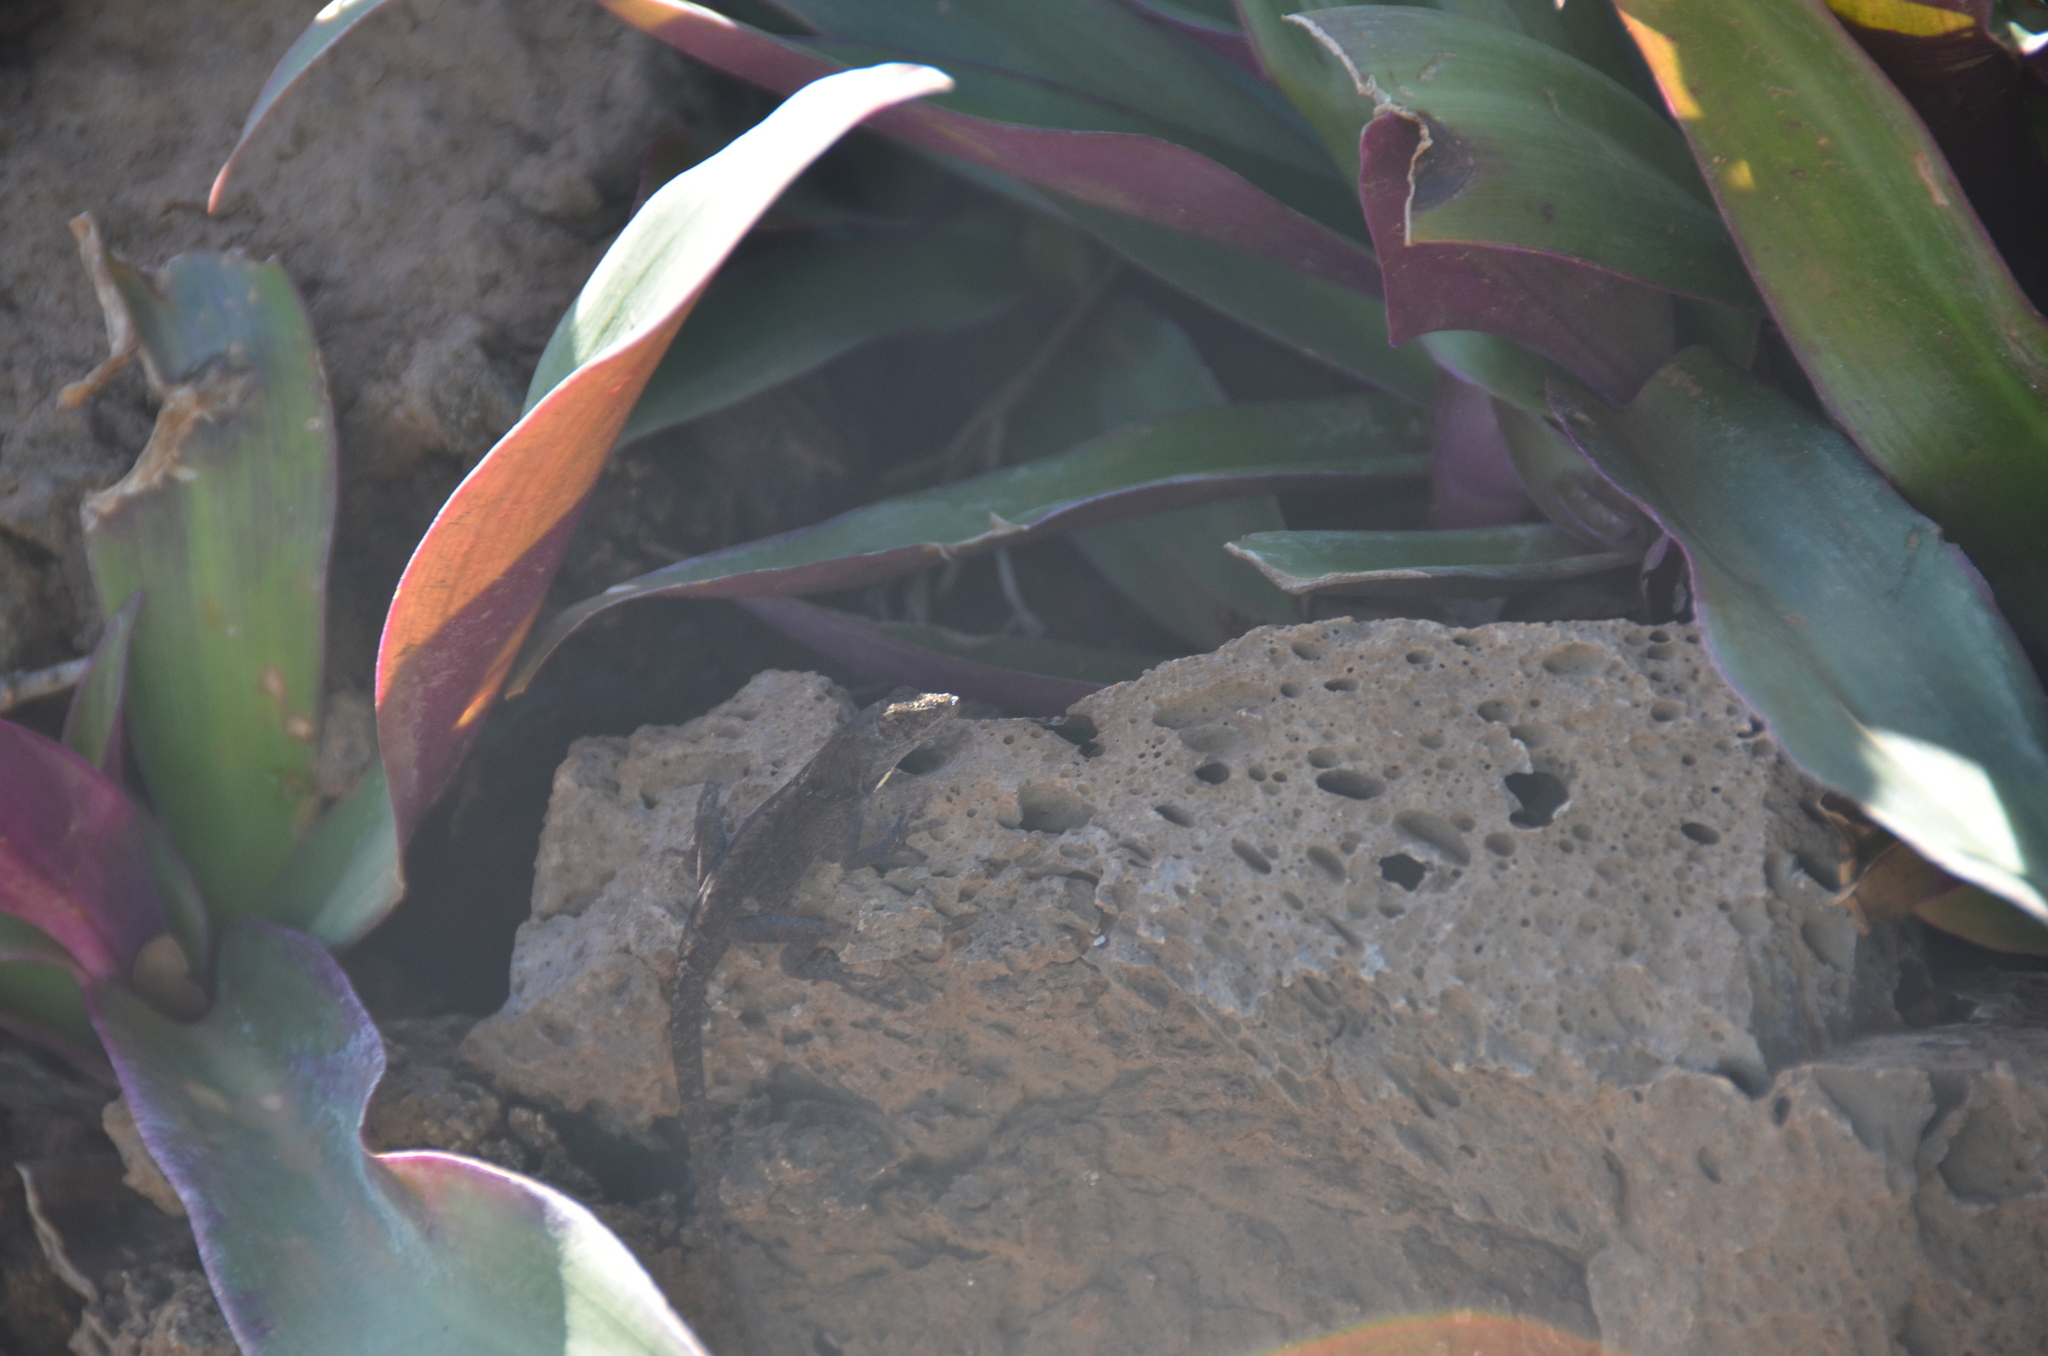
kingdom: Animalia
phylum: Chordata
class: Squamata
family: Dactyloidae
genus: Anolis
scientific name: Anolis sagrei
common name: Brown anole
